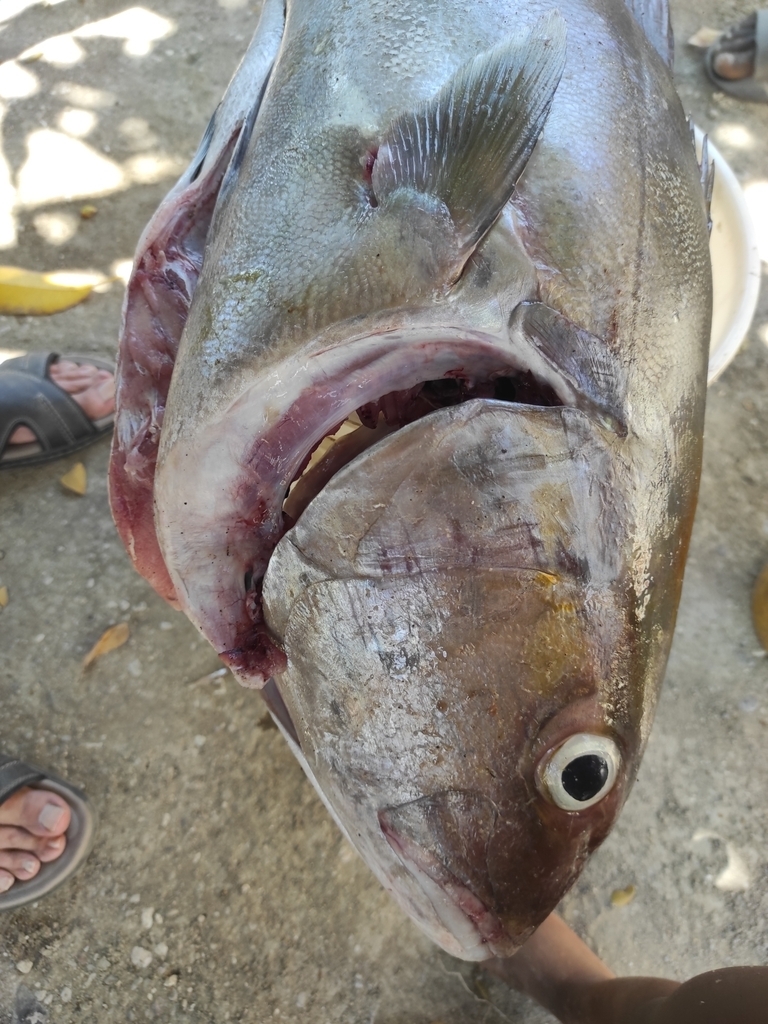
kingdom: Animalia
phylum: Chordata
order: Perciformes
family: Carangidae
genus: Seriola
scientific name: Seriola rivoliana
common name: Almaco jack
